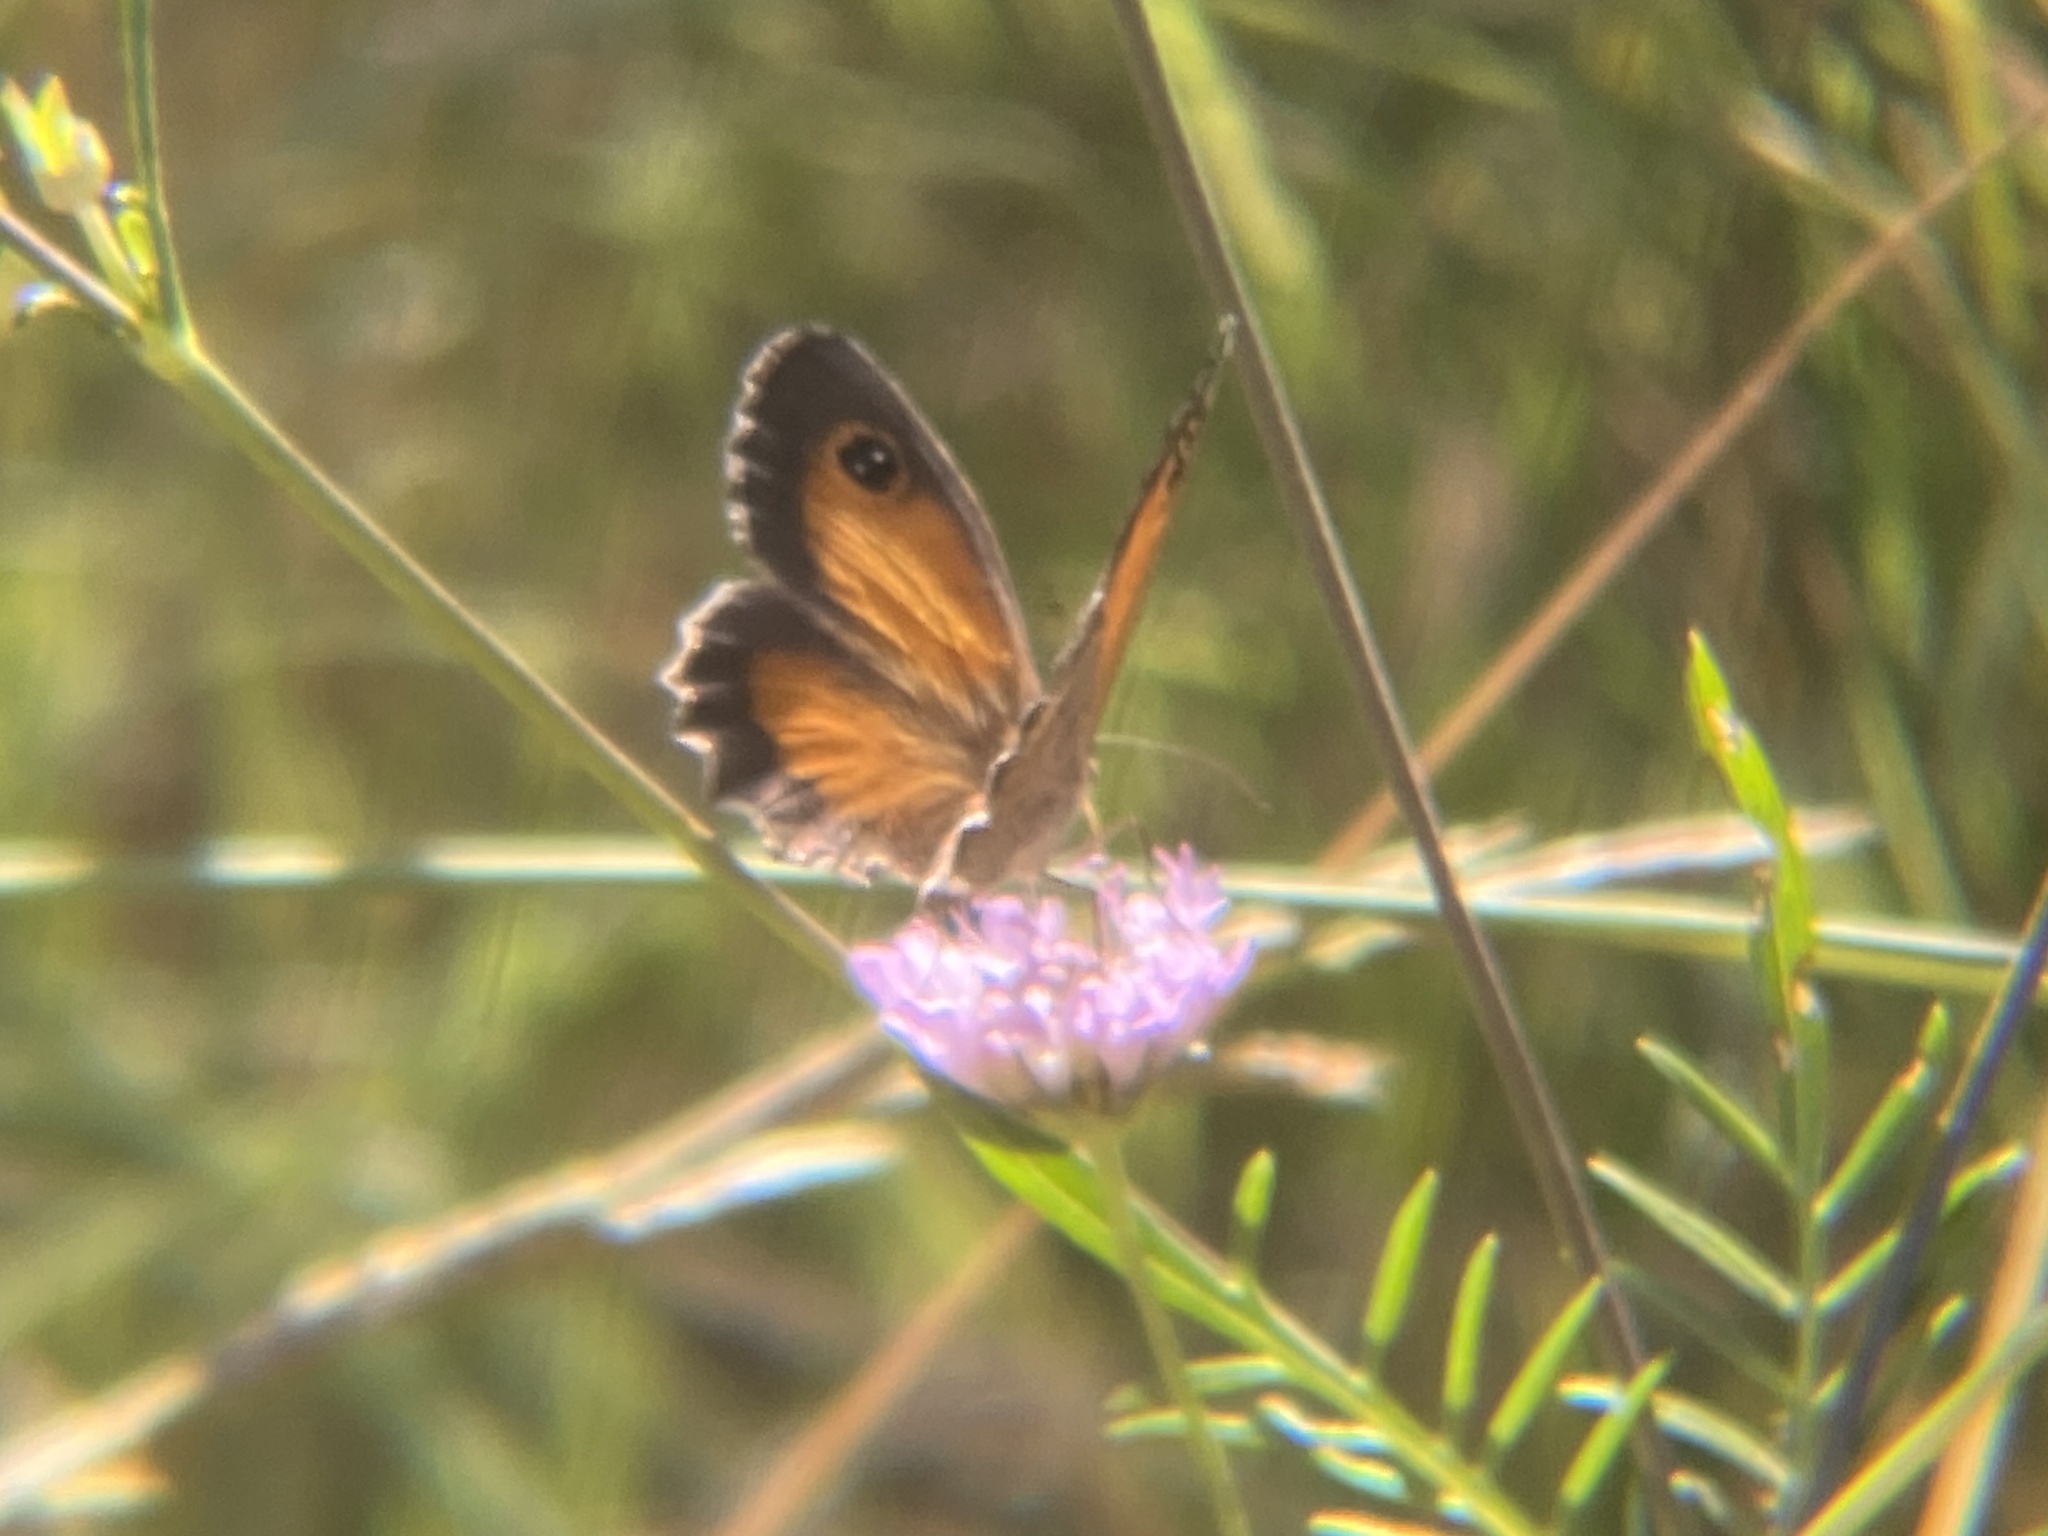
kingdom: Animalia
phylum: Arthropoda
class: Insecta
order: Lepidoptera
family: Nymphalidae
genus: Pyronia
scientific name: Pyronia cecilia
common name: Southern gatekeeper
